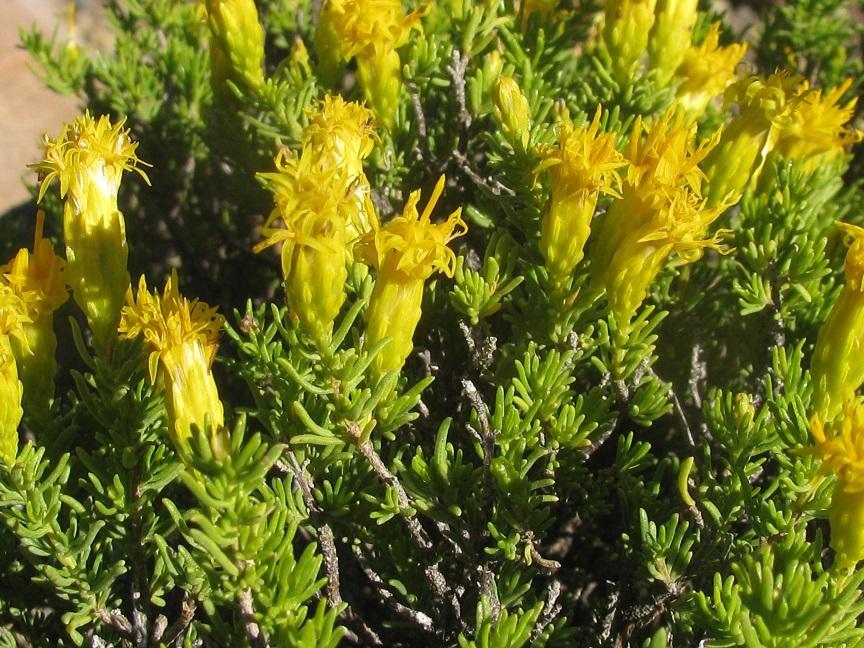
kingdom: Plantae
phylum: Tracheophyta
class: Magnoliopsida
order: Asterales
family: Asteraceae
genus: Pteronia
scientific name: Pteronia empetrifolia
